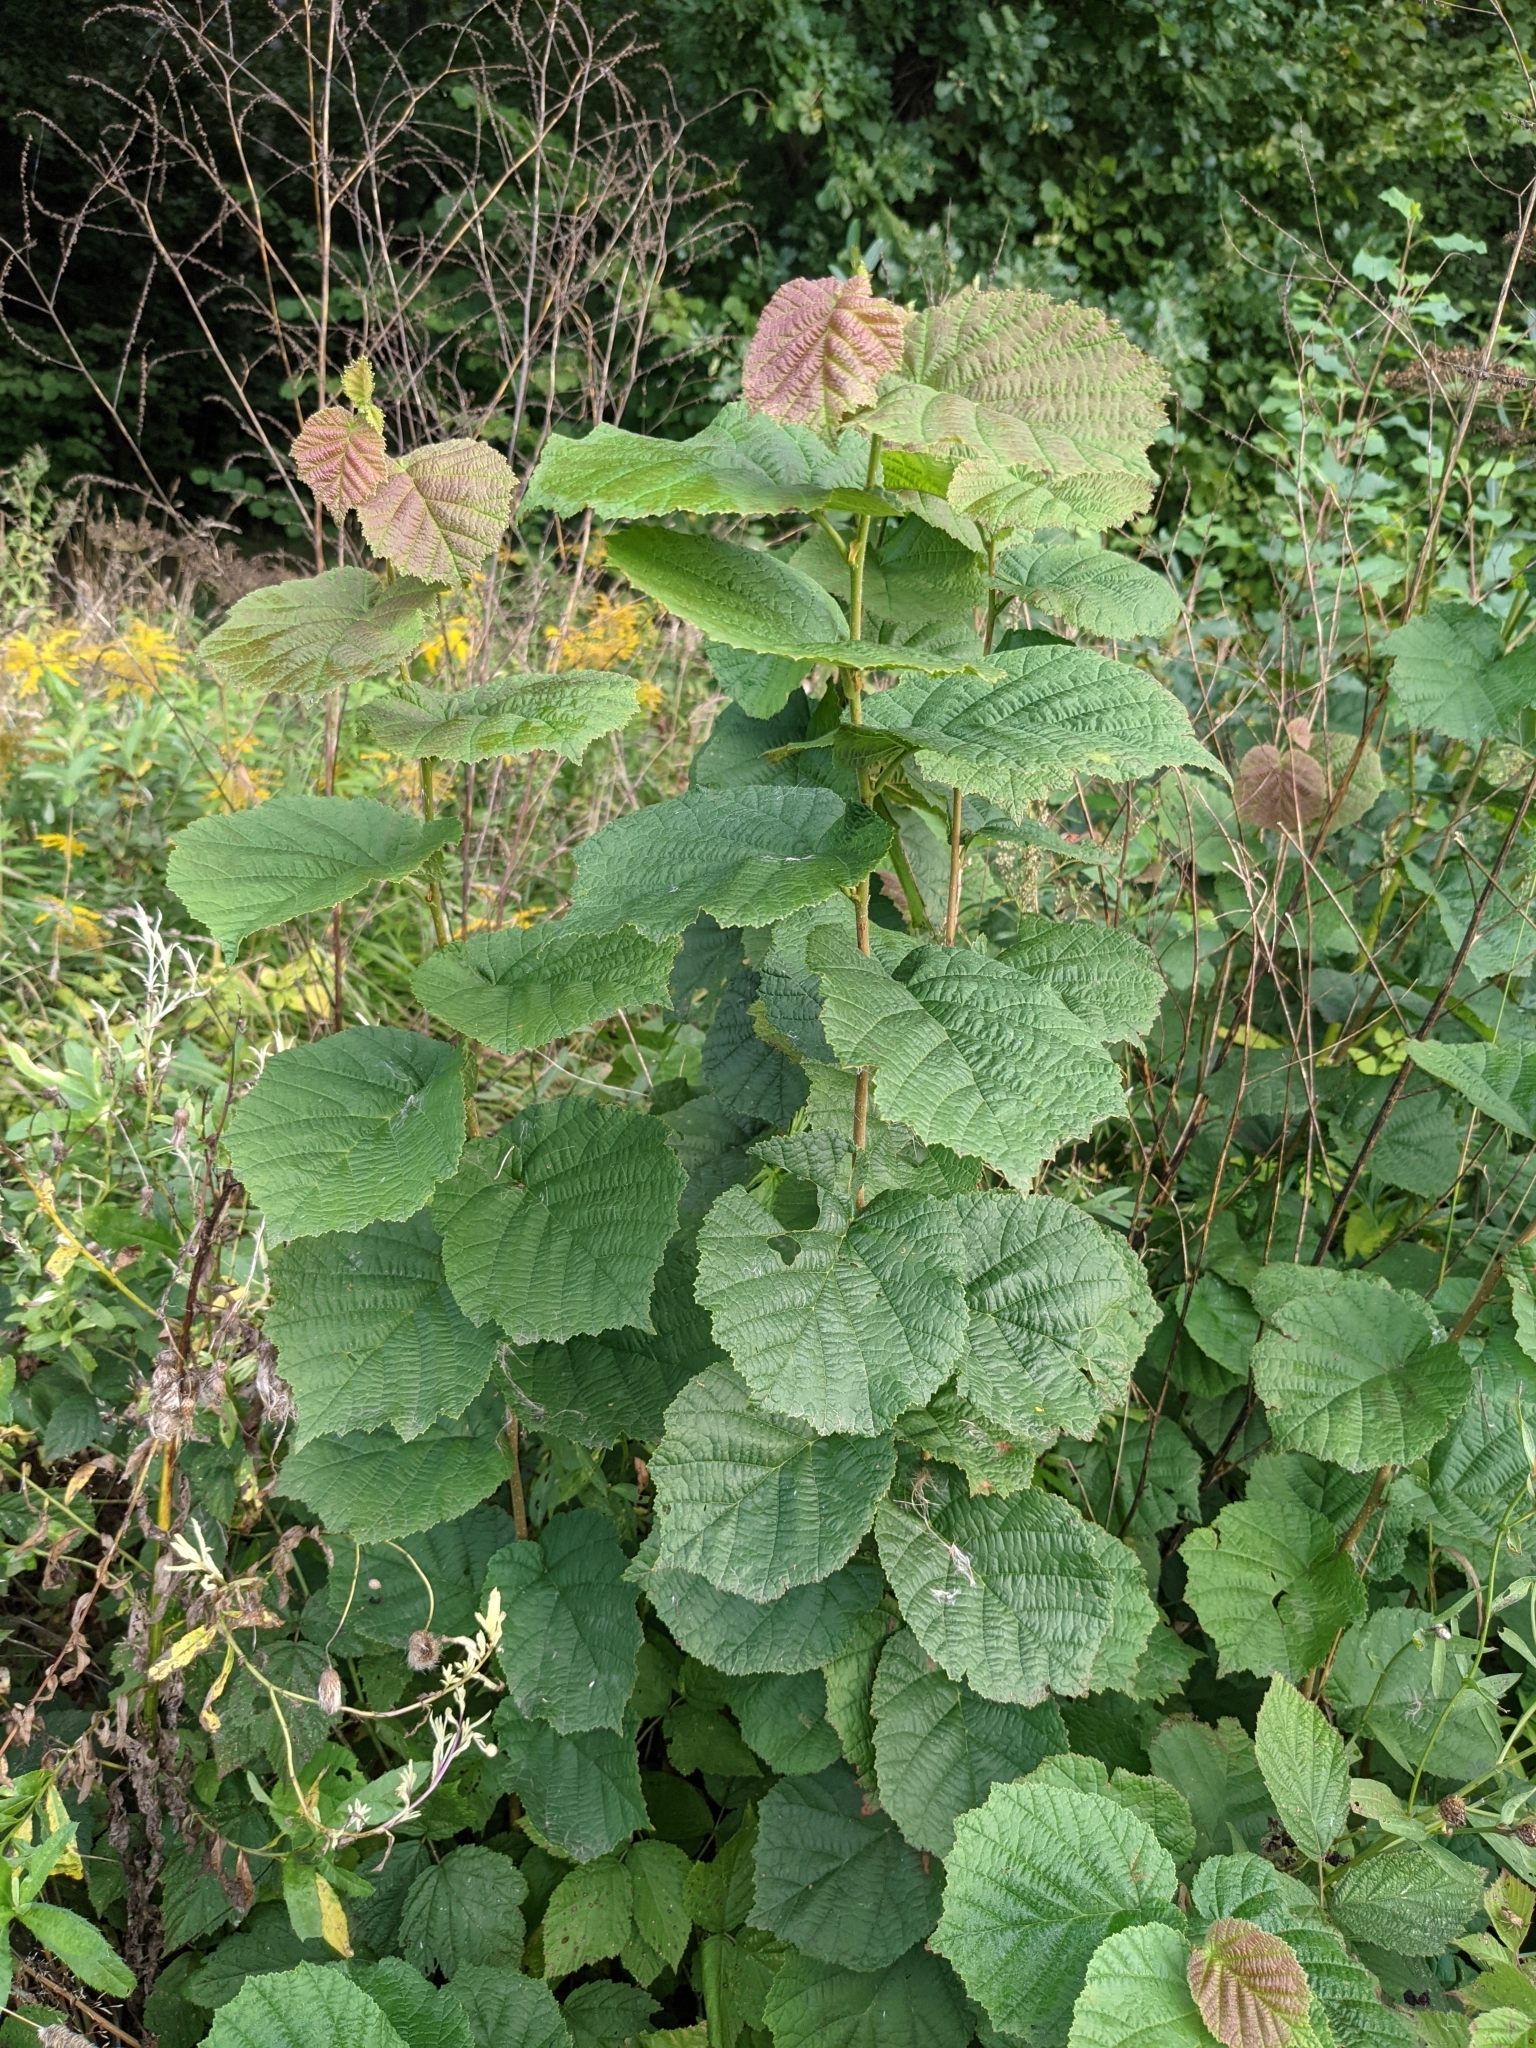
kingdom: Plantae
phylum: Tracheophyta
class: Magnoliopsida
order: Fagales
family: Betulaceae
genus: Corylus
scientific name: Corylus avellana
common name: European hazel
